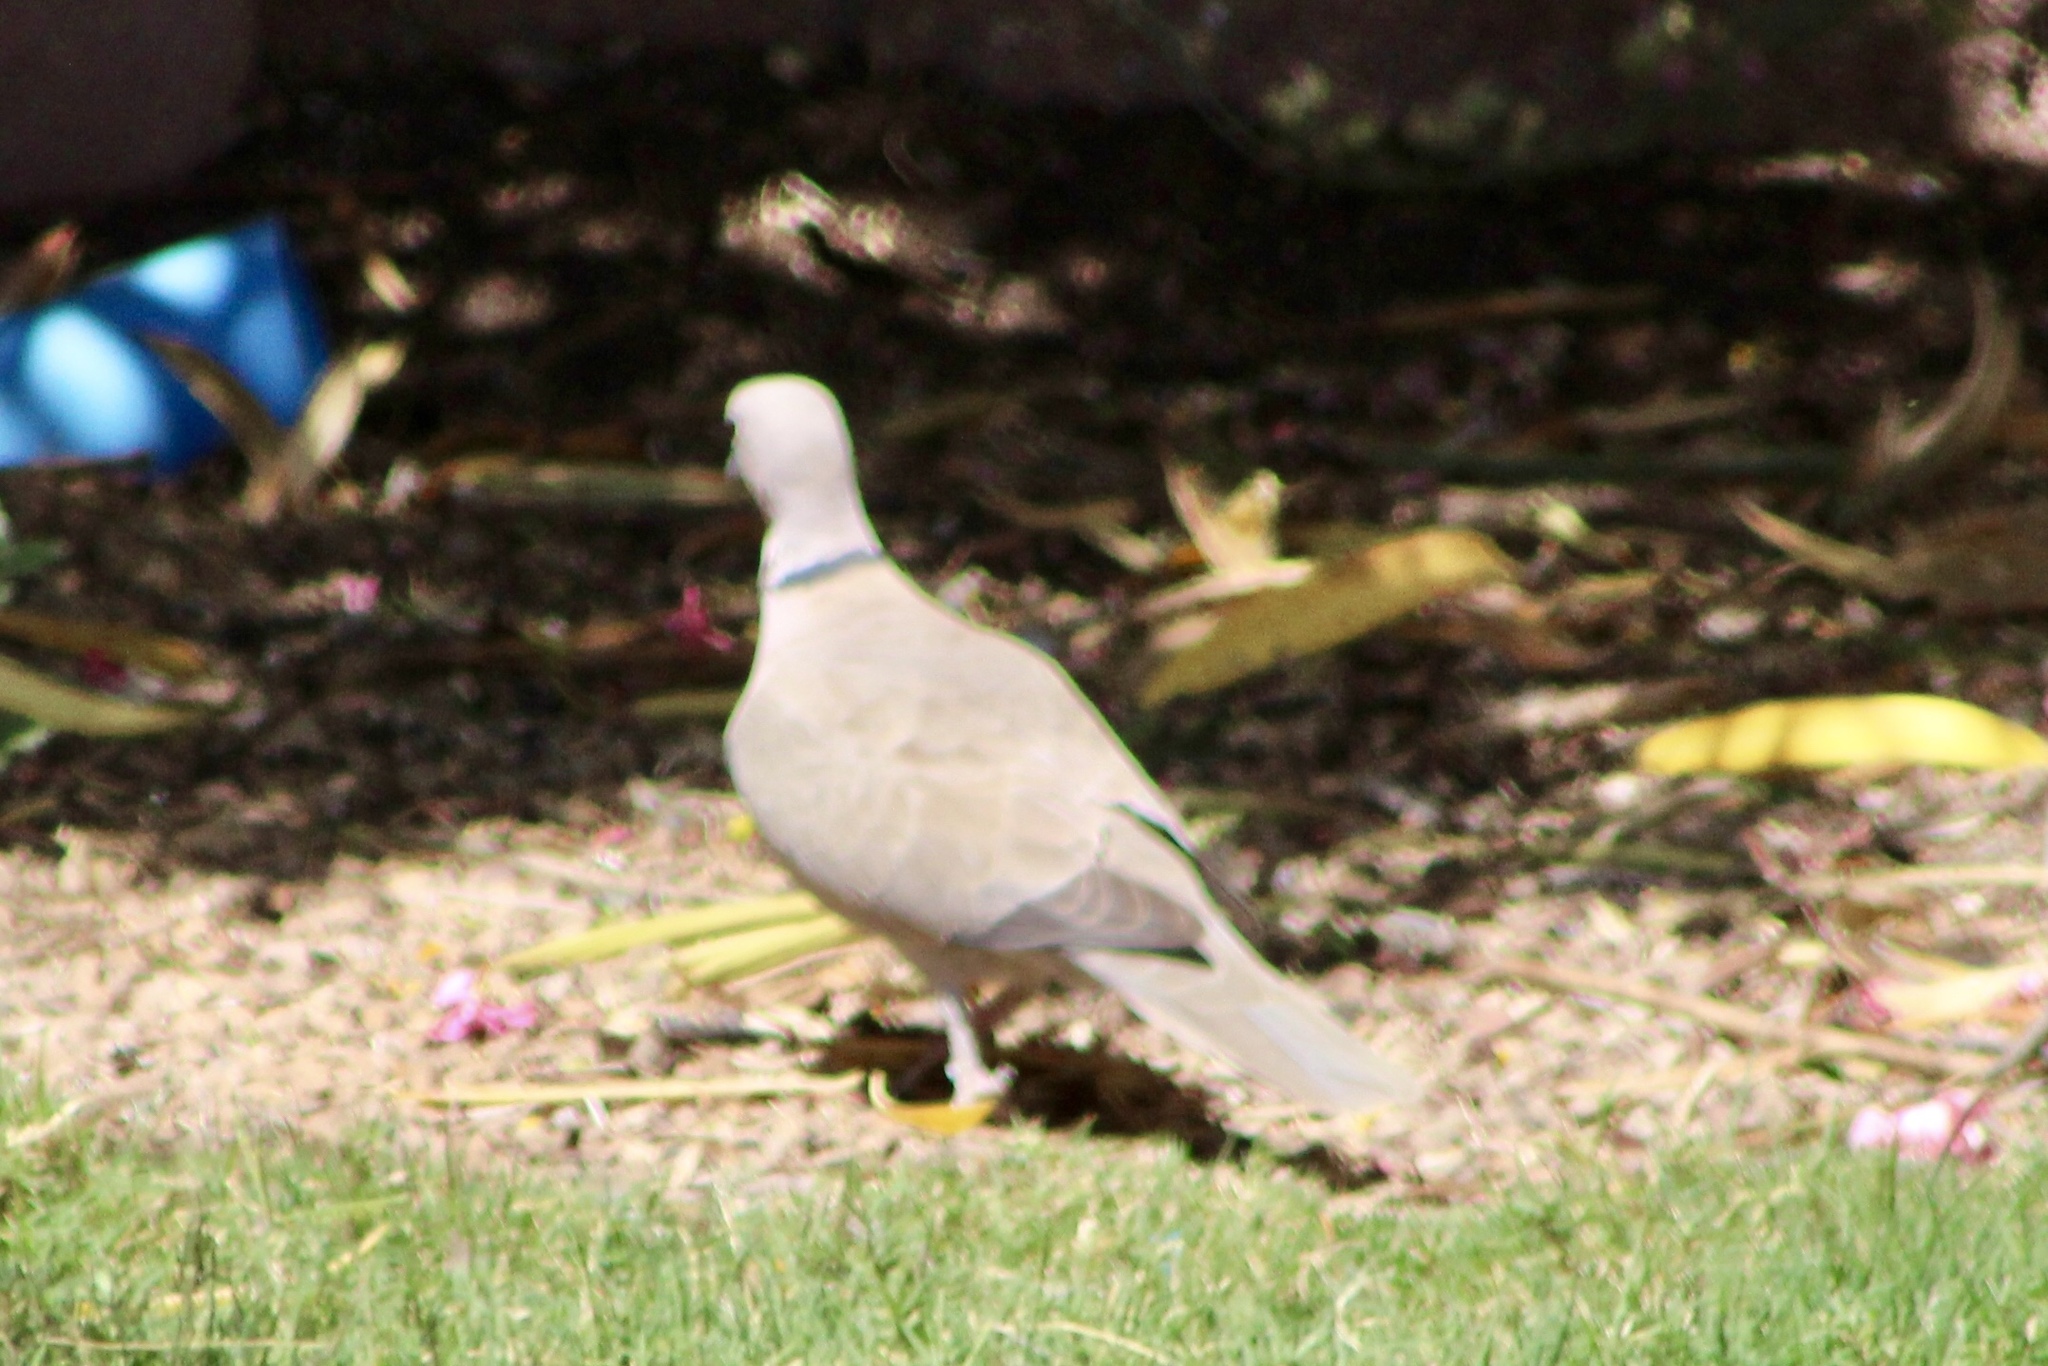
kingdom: Animalia
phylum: Chordata
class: Aves
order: Columbiformes
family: Columbidae
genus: Streptopelia
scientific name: Streptopelia decaocto
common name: Eurasian collared dove
